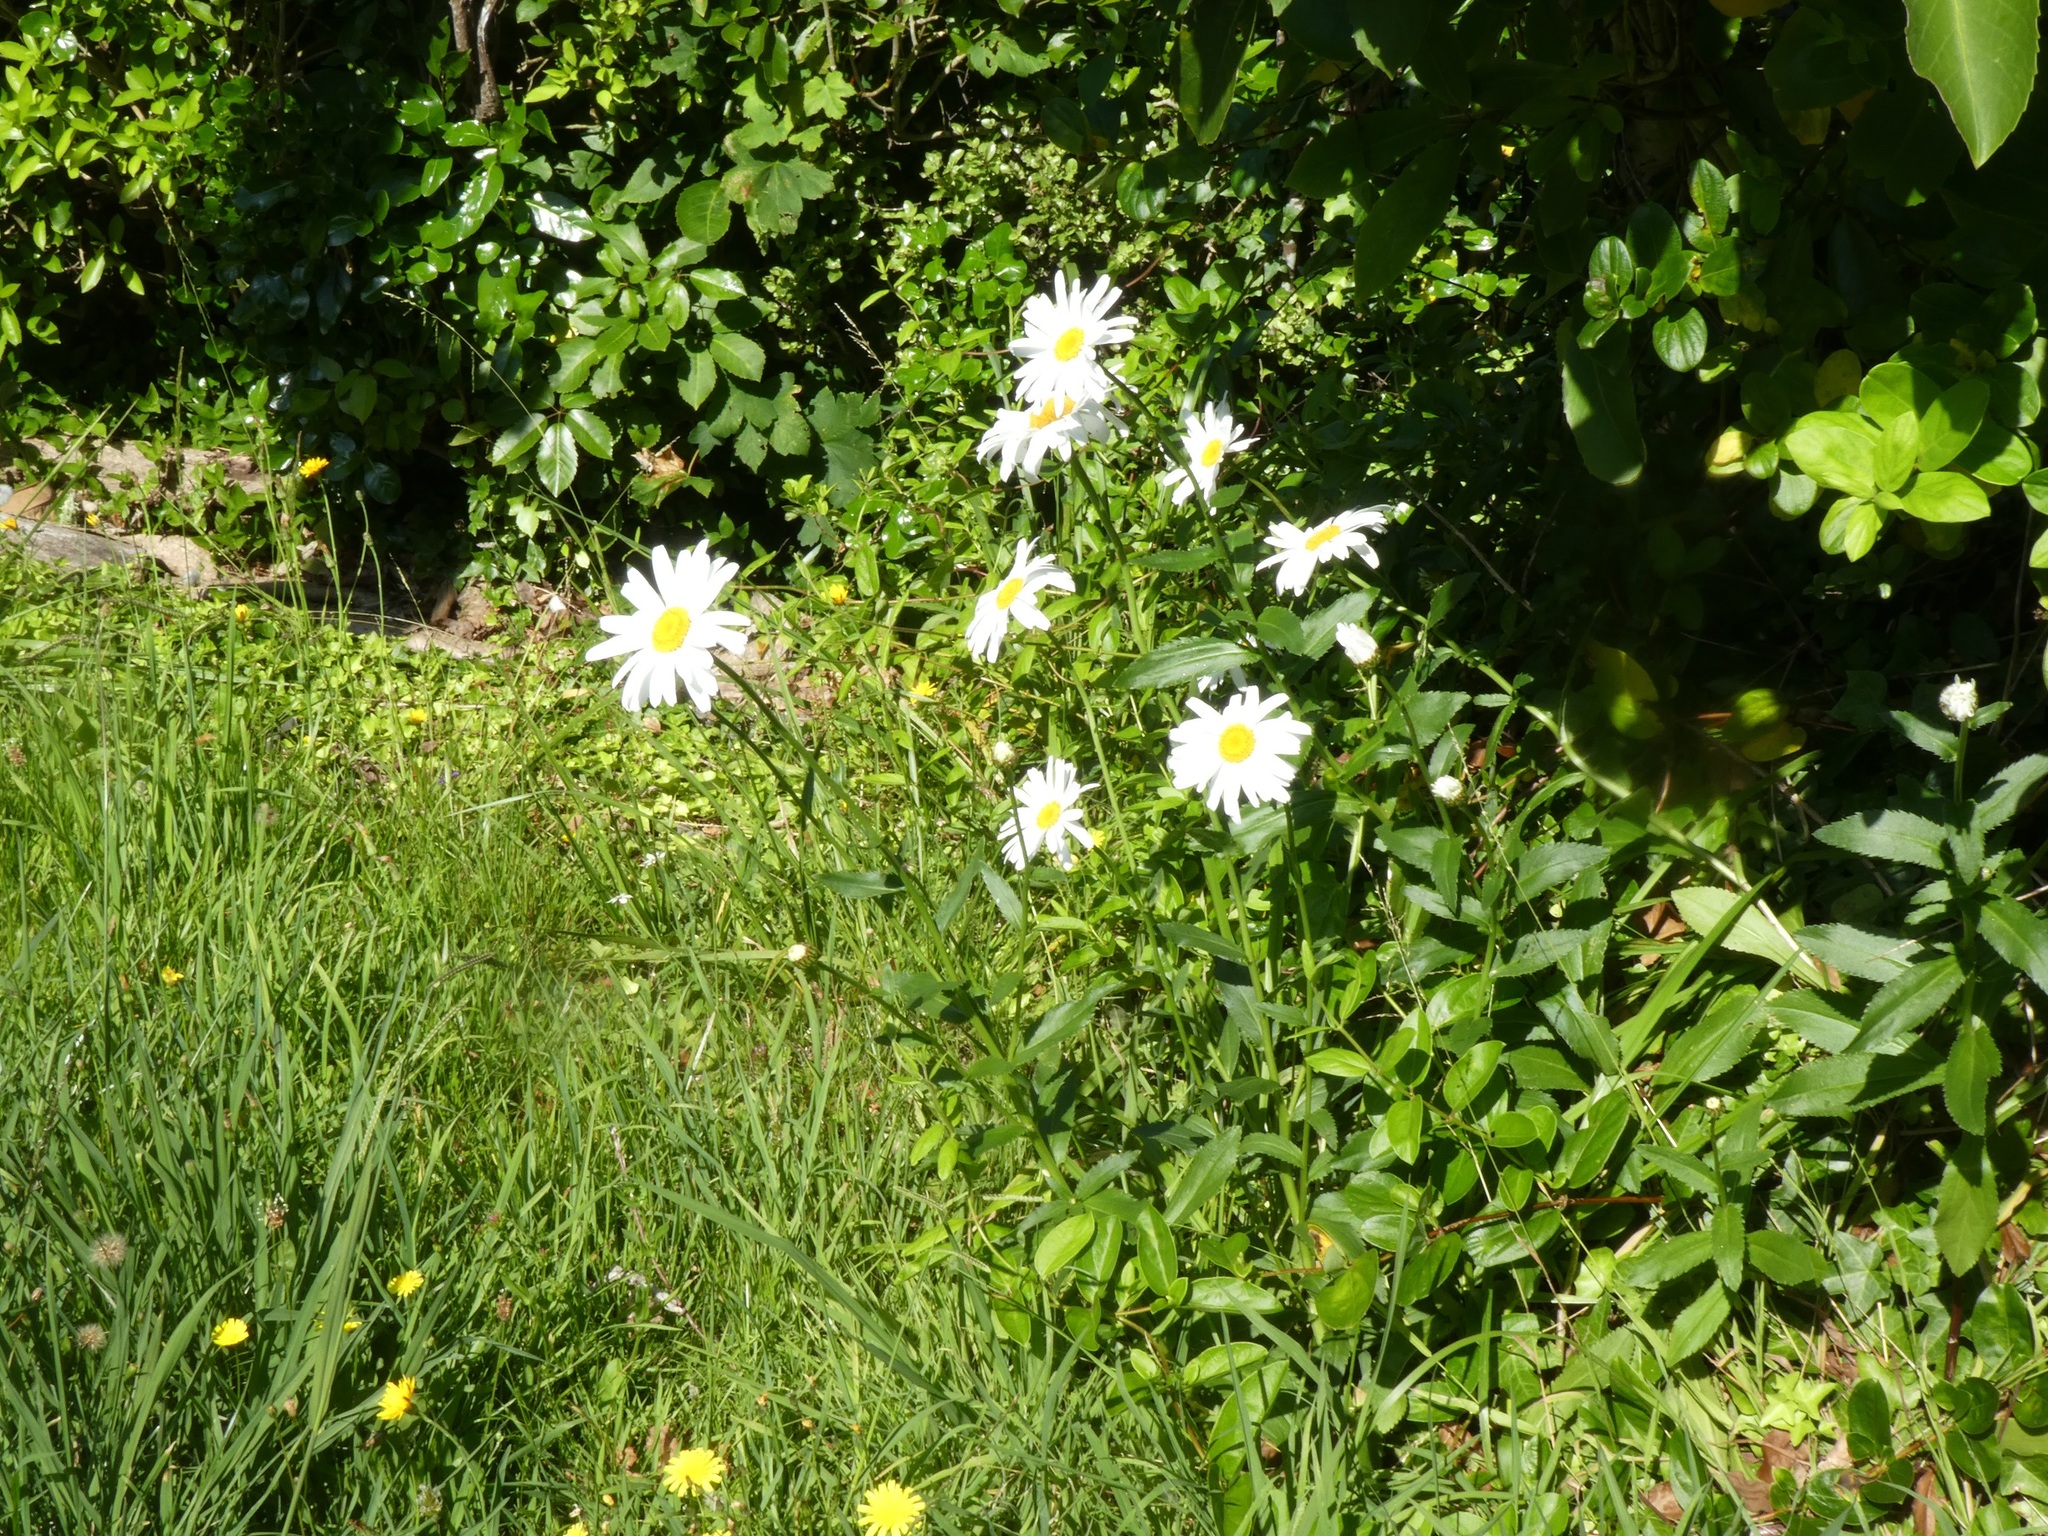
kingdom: Plantae
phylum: Tracheophyta
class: Magnoliopsida
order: Asterales
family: Asteraceae
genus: Leucanthemum
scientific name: Leucanthemum maximum
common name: Max chrysanthemum
